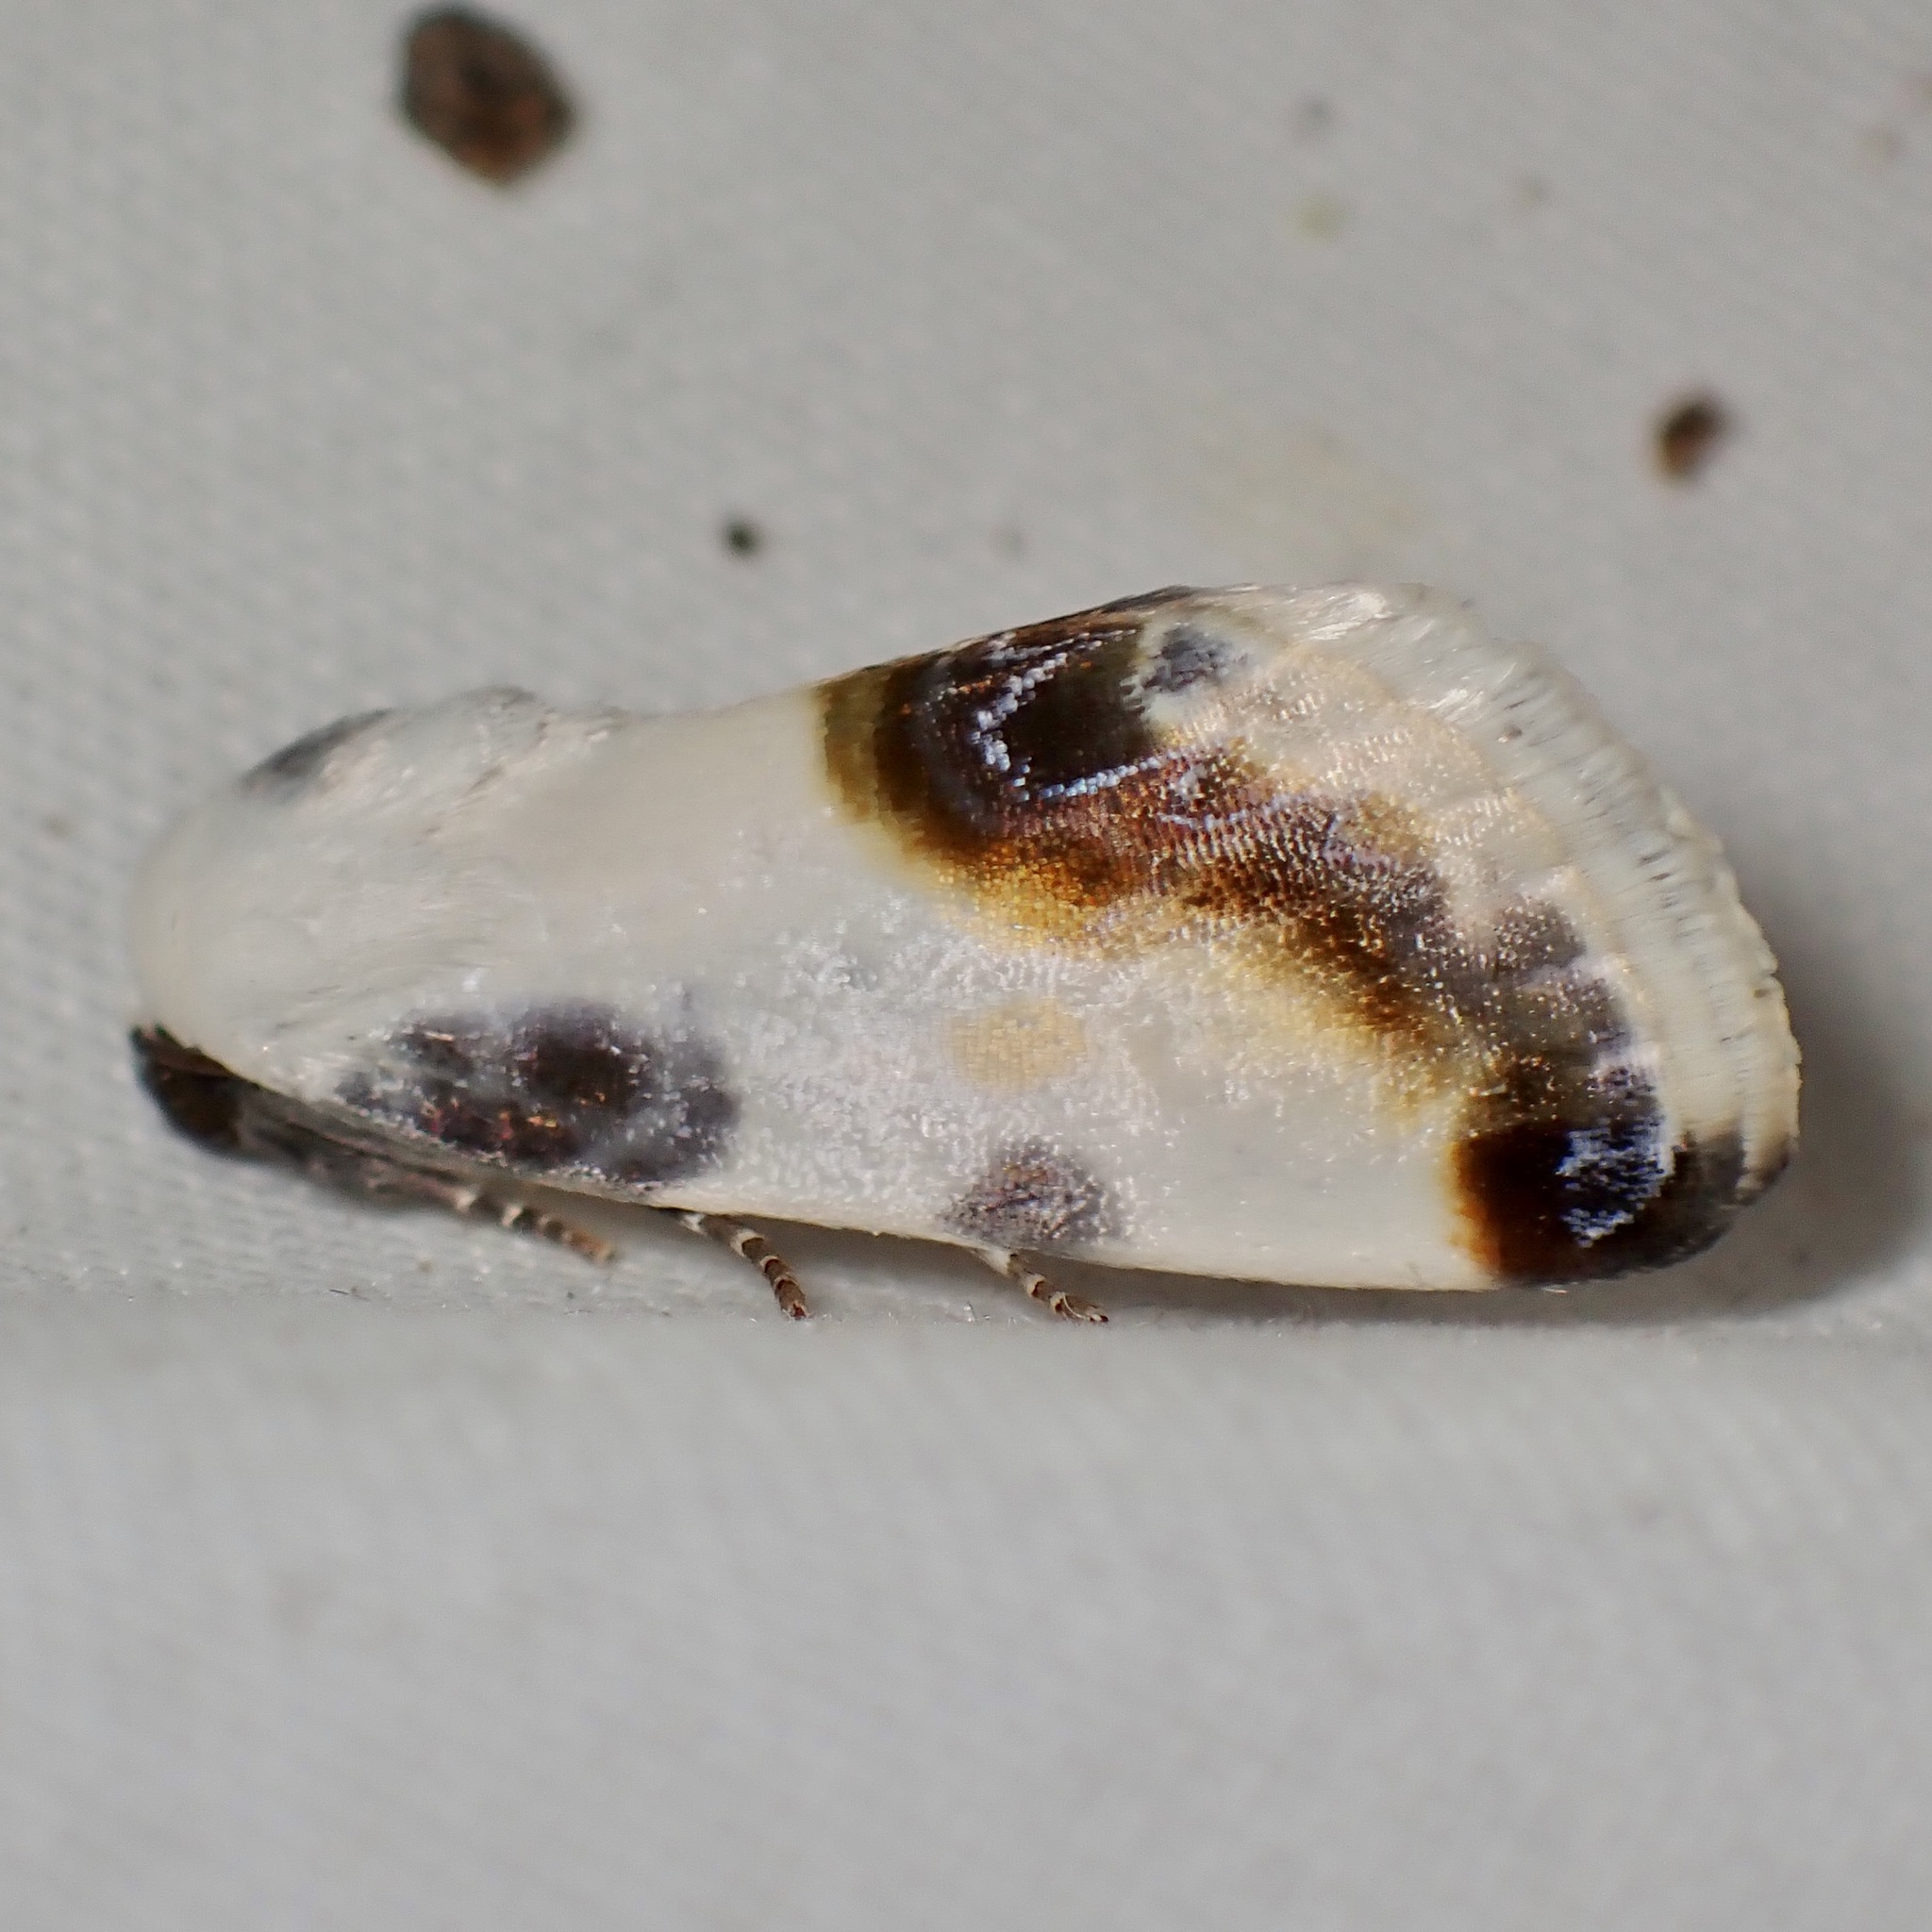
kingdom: Animalia
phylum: Arthropoda
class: Insecta
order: Lepidoptera
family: Noctuidae
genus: Acontia
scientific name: Acontia chea
